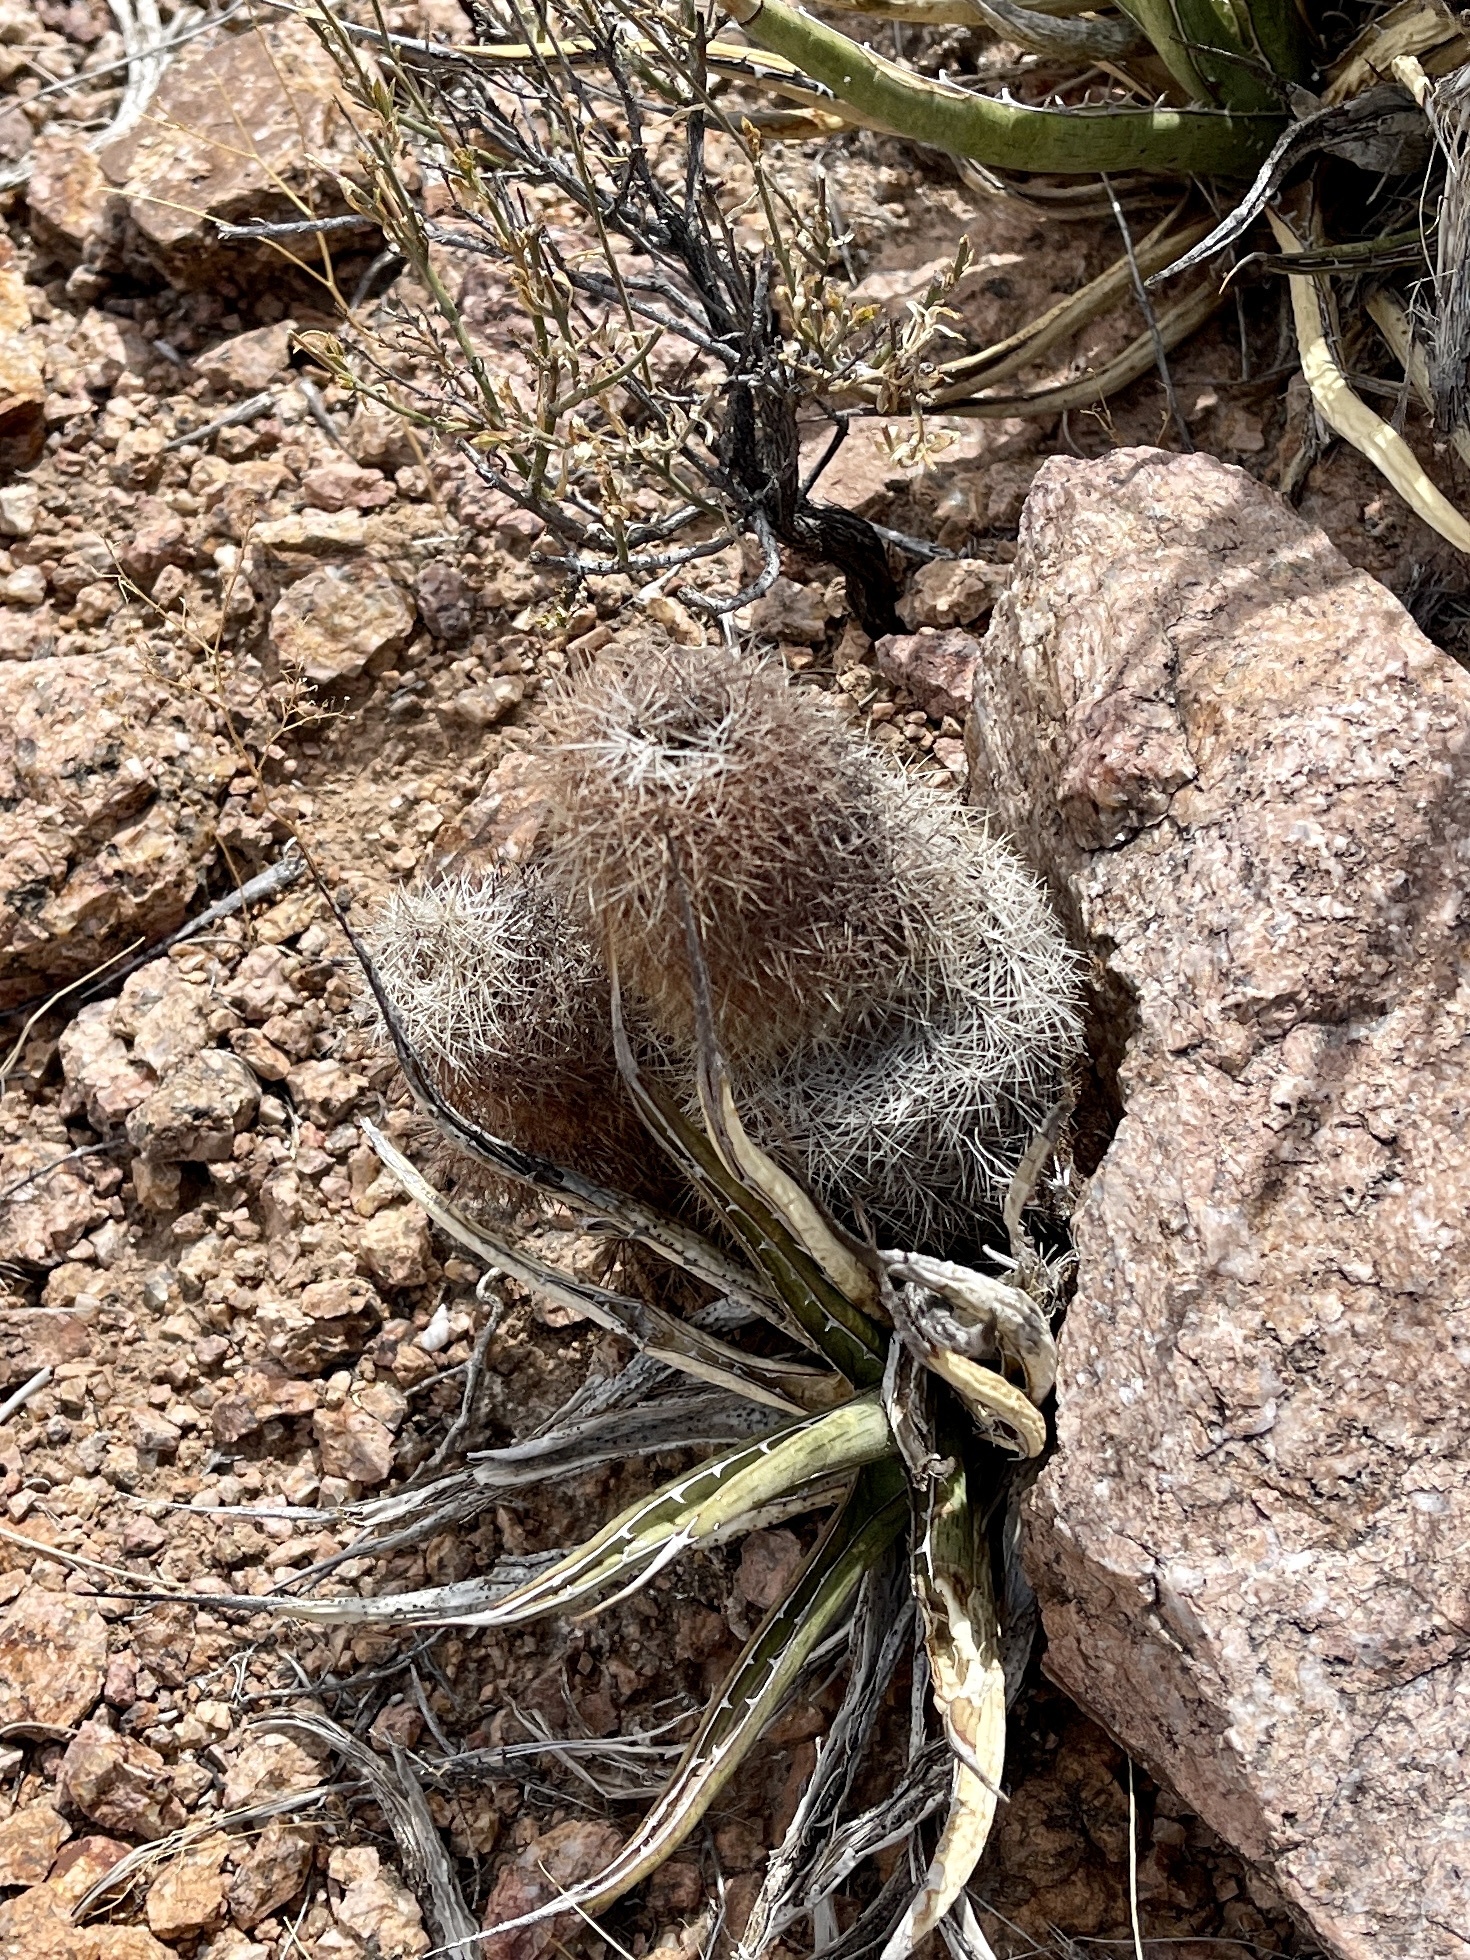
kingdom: Plantae
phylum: Tracheophyta
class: Magnoliopsida
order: Caryophyllales
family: Cactaceae
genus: Echinocereus
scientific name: Echinocereus dasyacanthus
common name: Spiny hedgehog cactus
